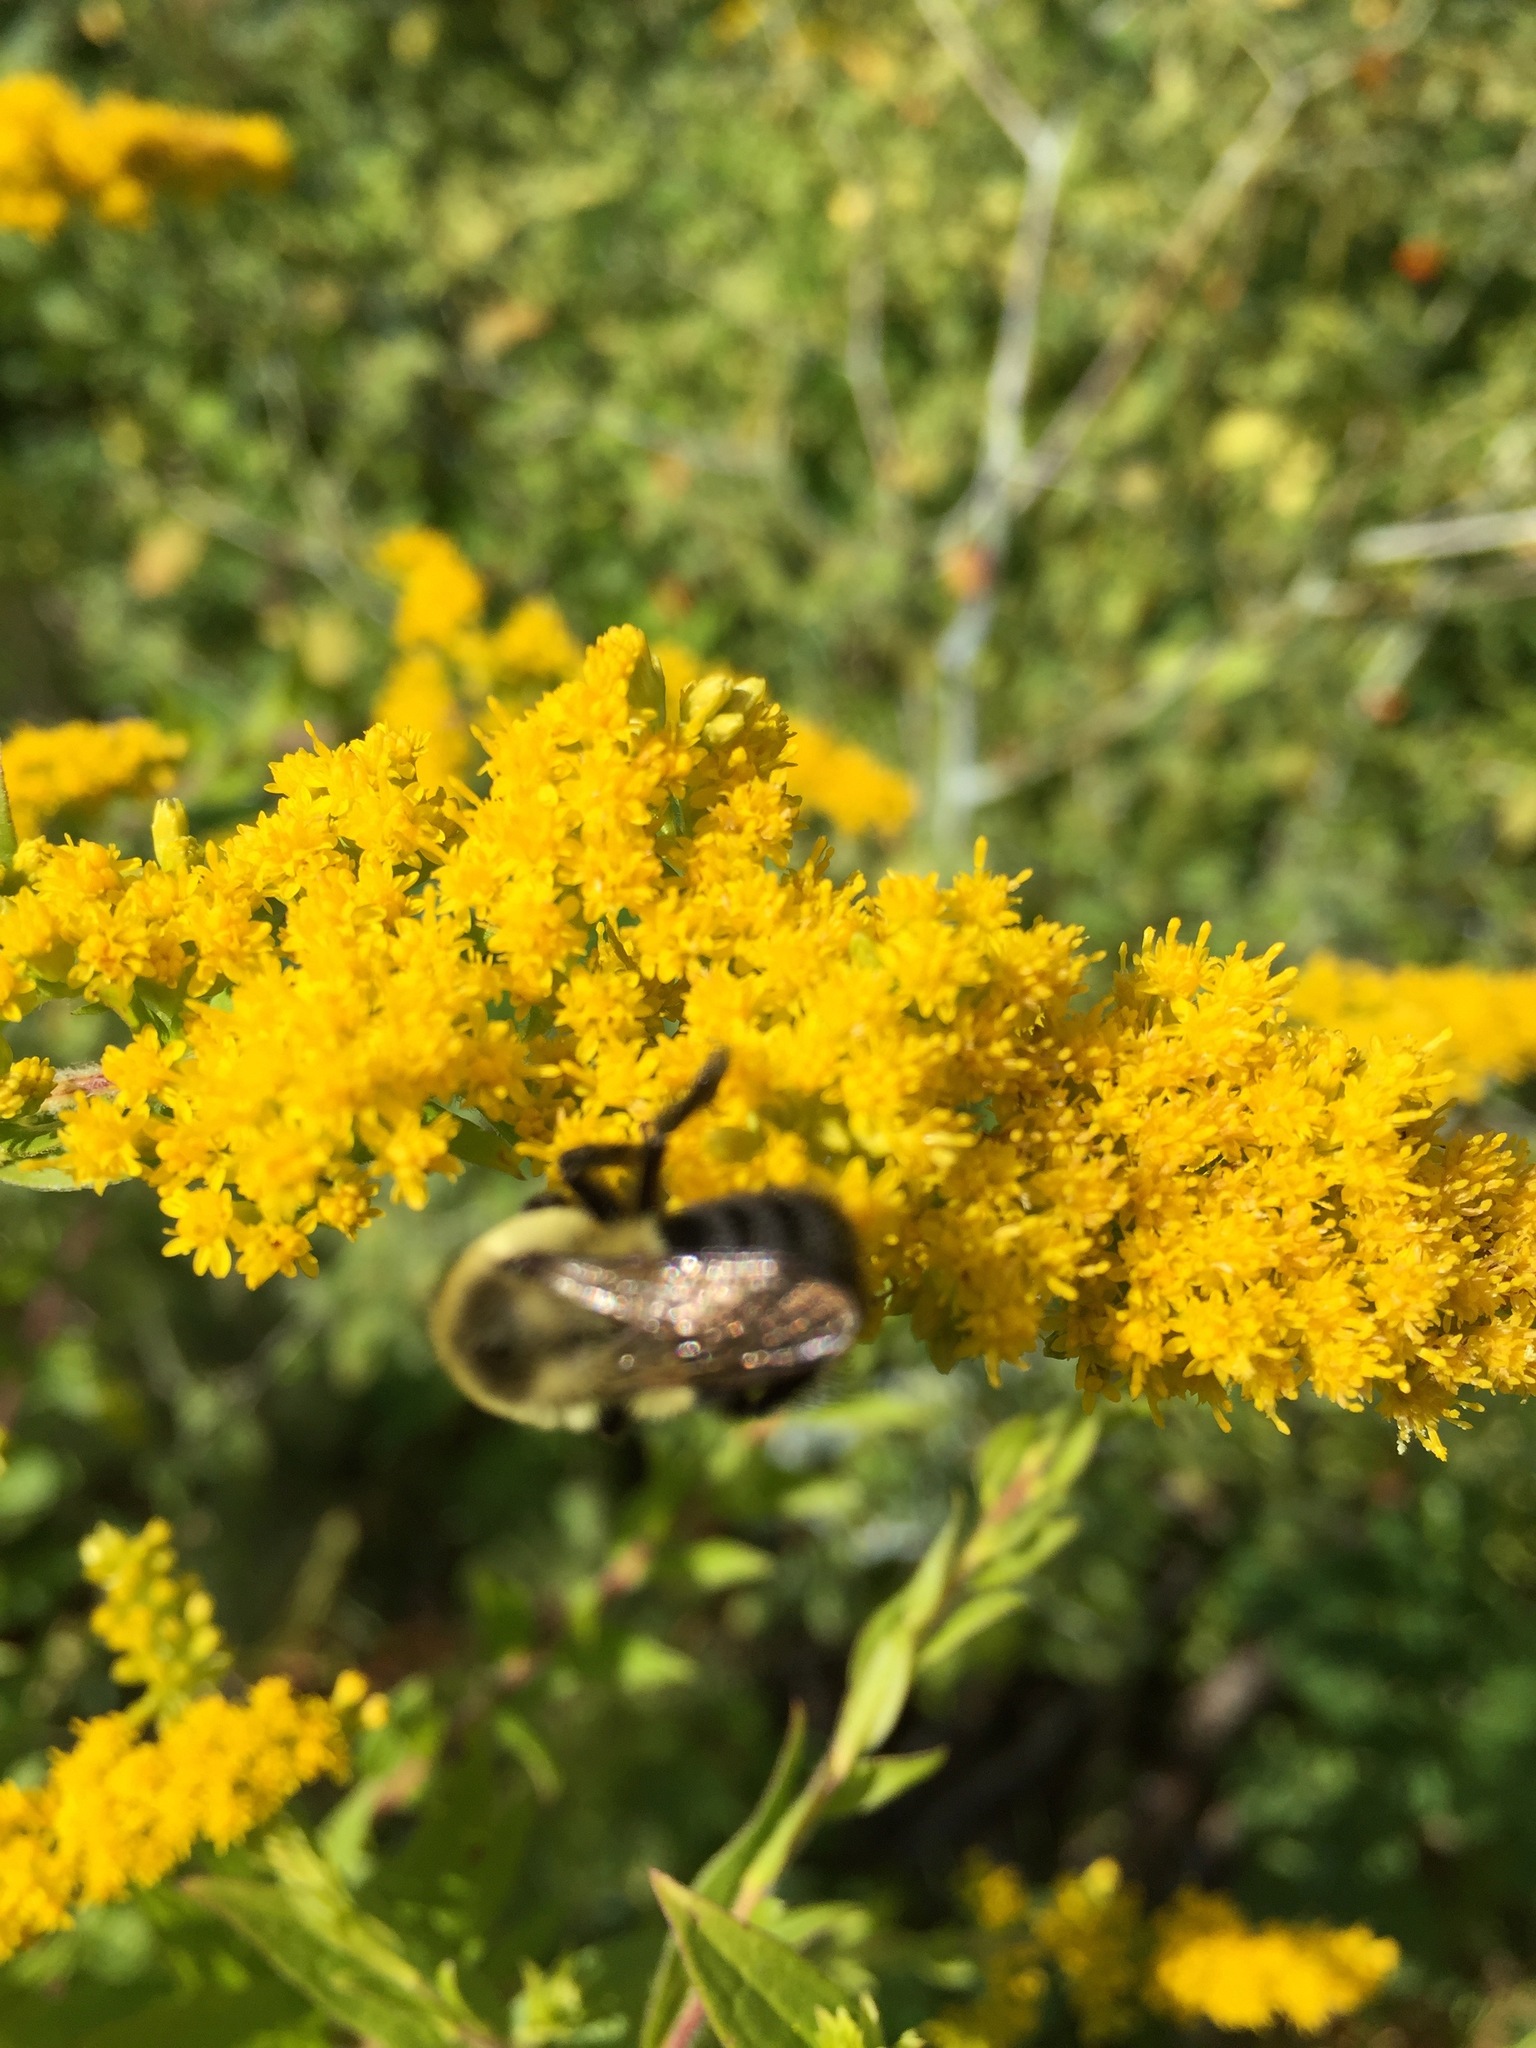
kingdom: Animalia
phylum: Arthropoda
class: Insecta
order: Hymenoptera
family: Apidae
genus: Bombus
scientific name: Bombus impatiens
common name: Common eastern bumble bee
